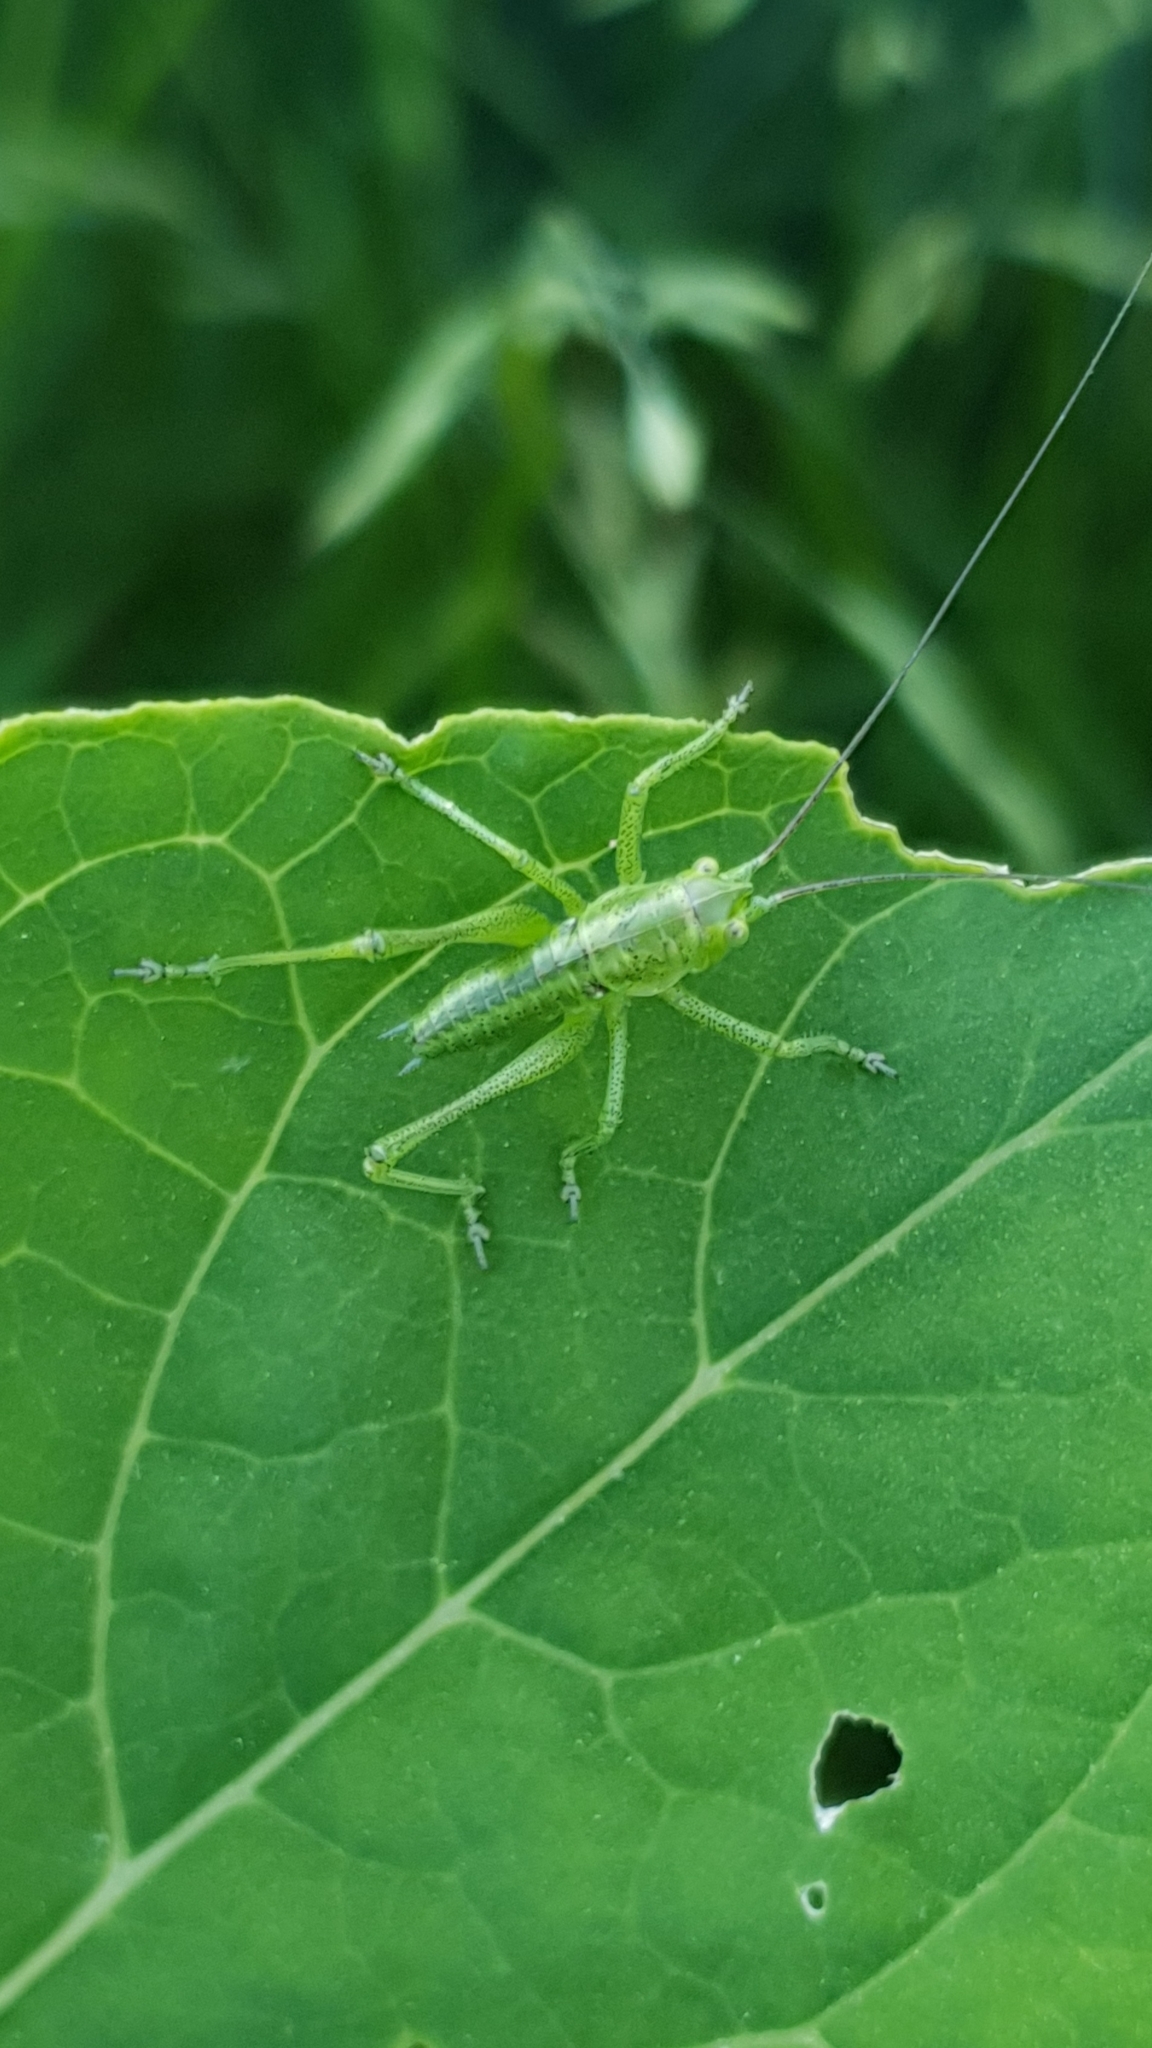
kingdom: Animalia
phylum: Arthropoda
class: Insecta
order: Orthoptera
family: Tettigoniidae
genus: Tettigonia
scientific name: Tettigonia viridissima
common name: Great green bush-cricket
